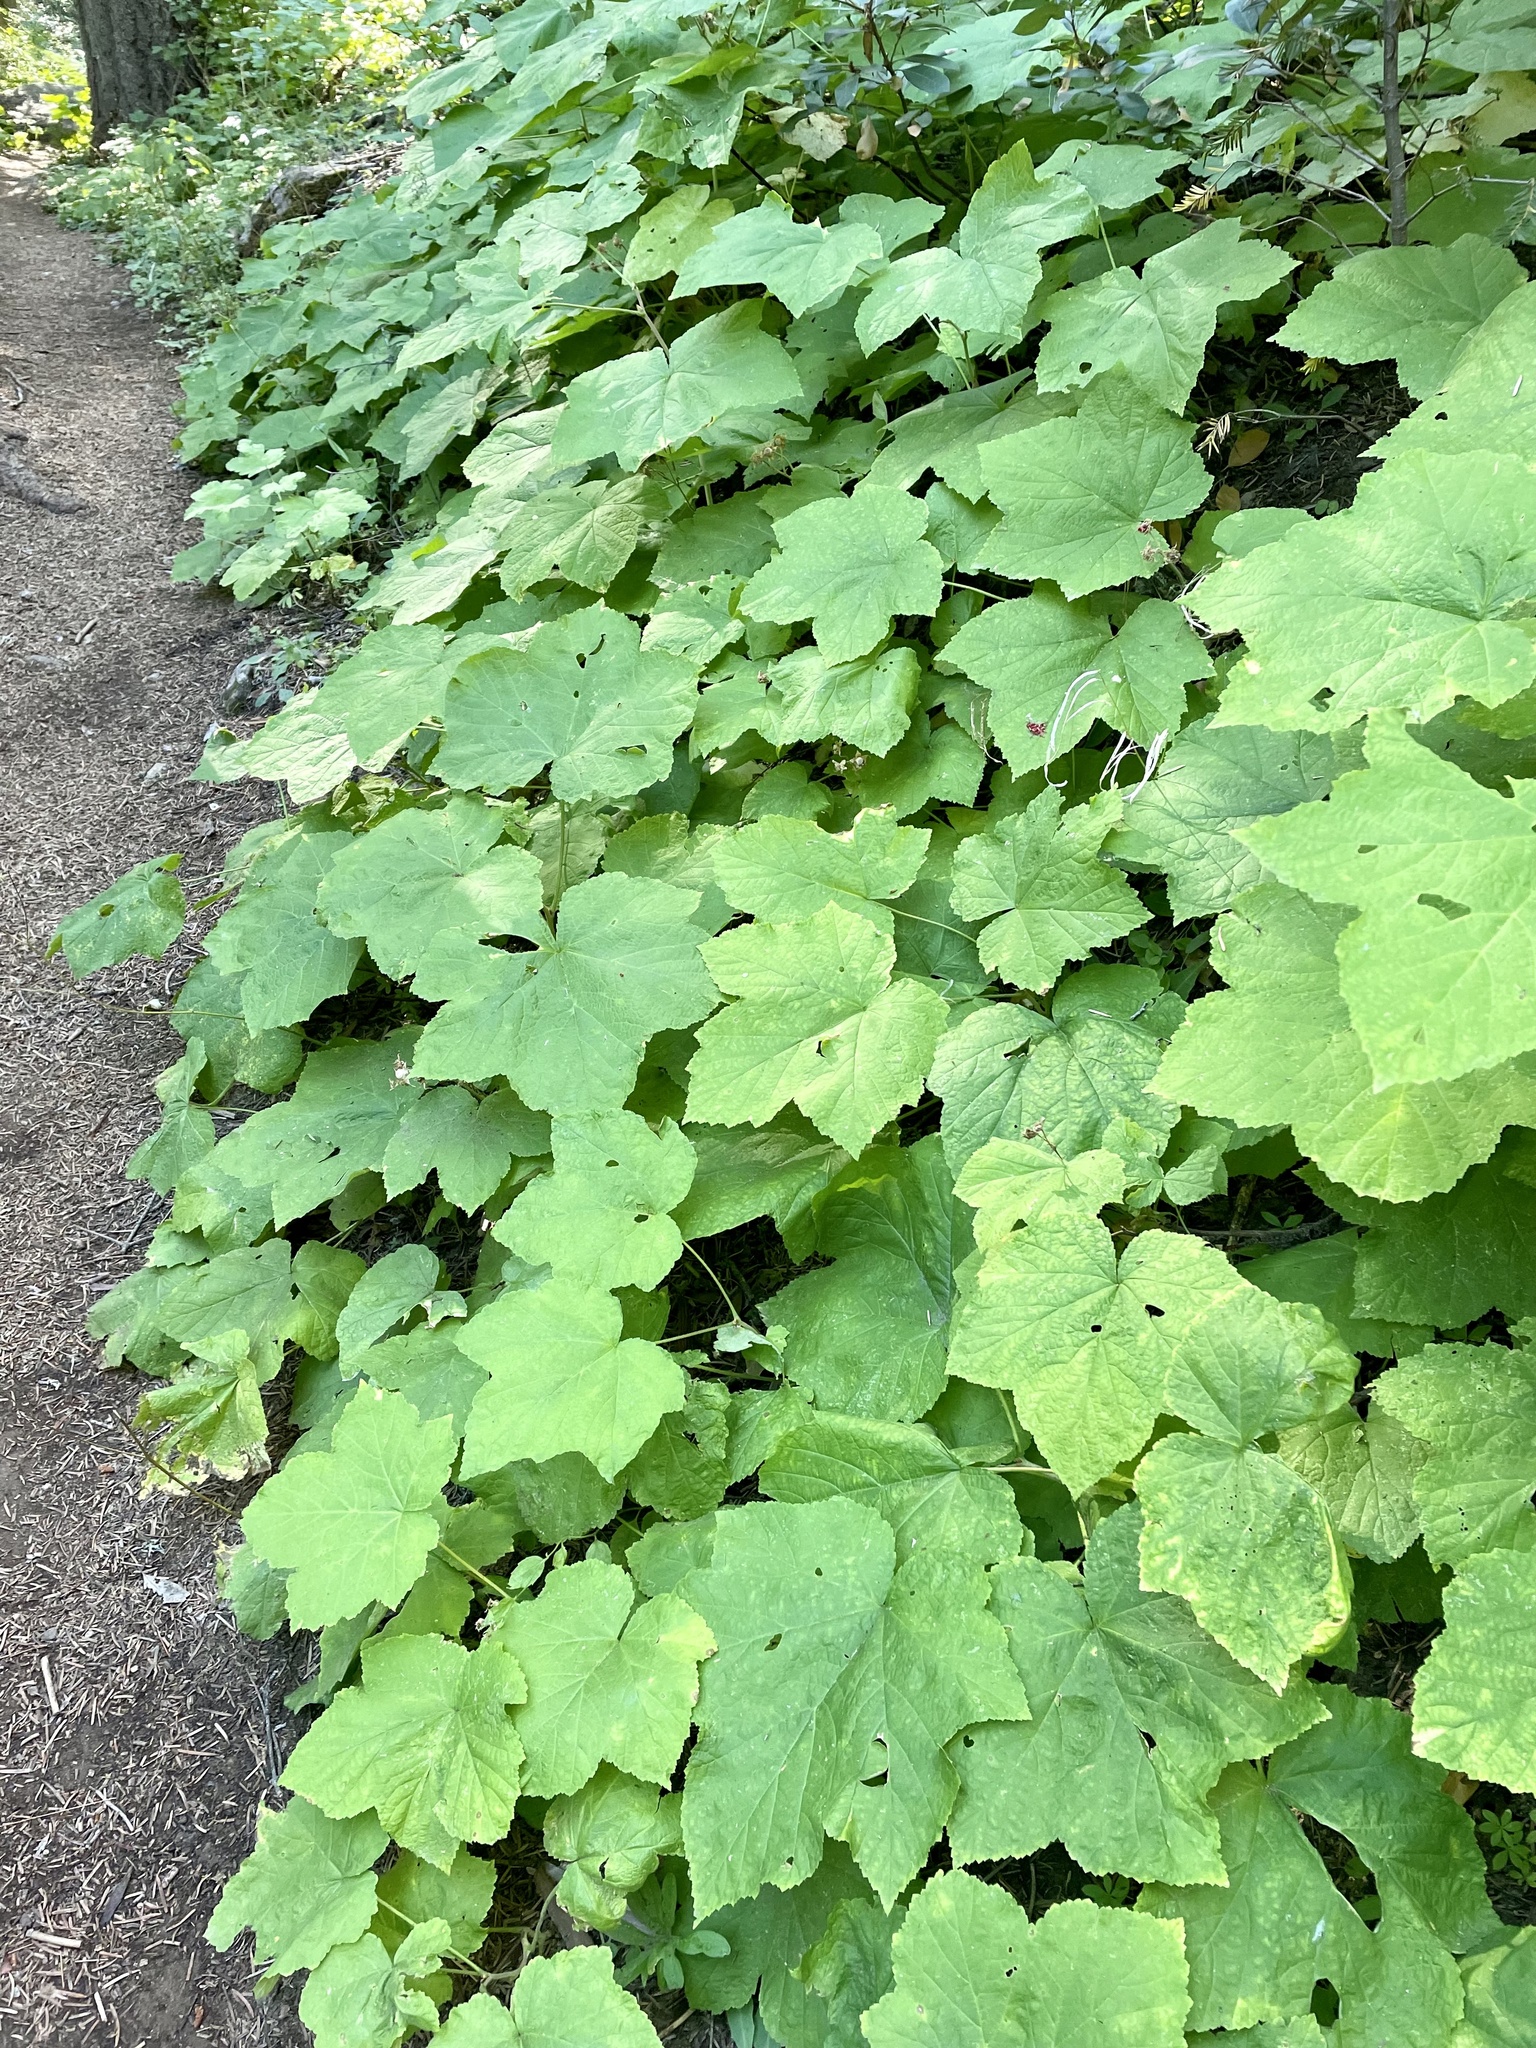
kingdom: Plantae
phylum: Tracheophyta
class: Magnoliopsida
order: Rosales
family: Rosaceae
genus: Rubus
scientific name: Rubus parviflorus
